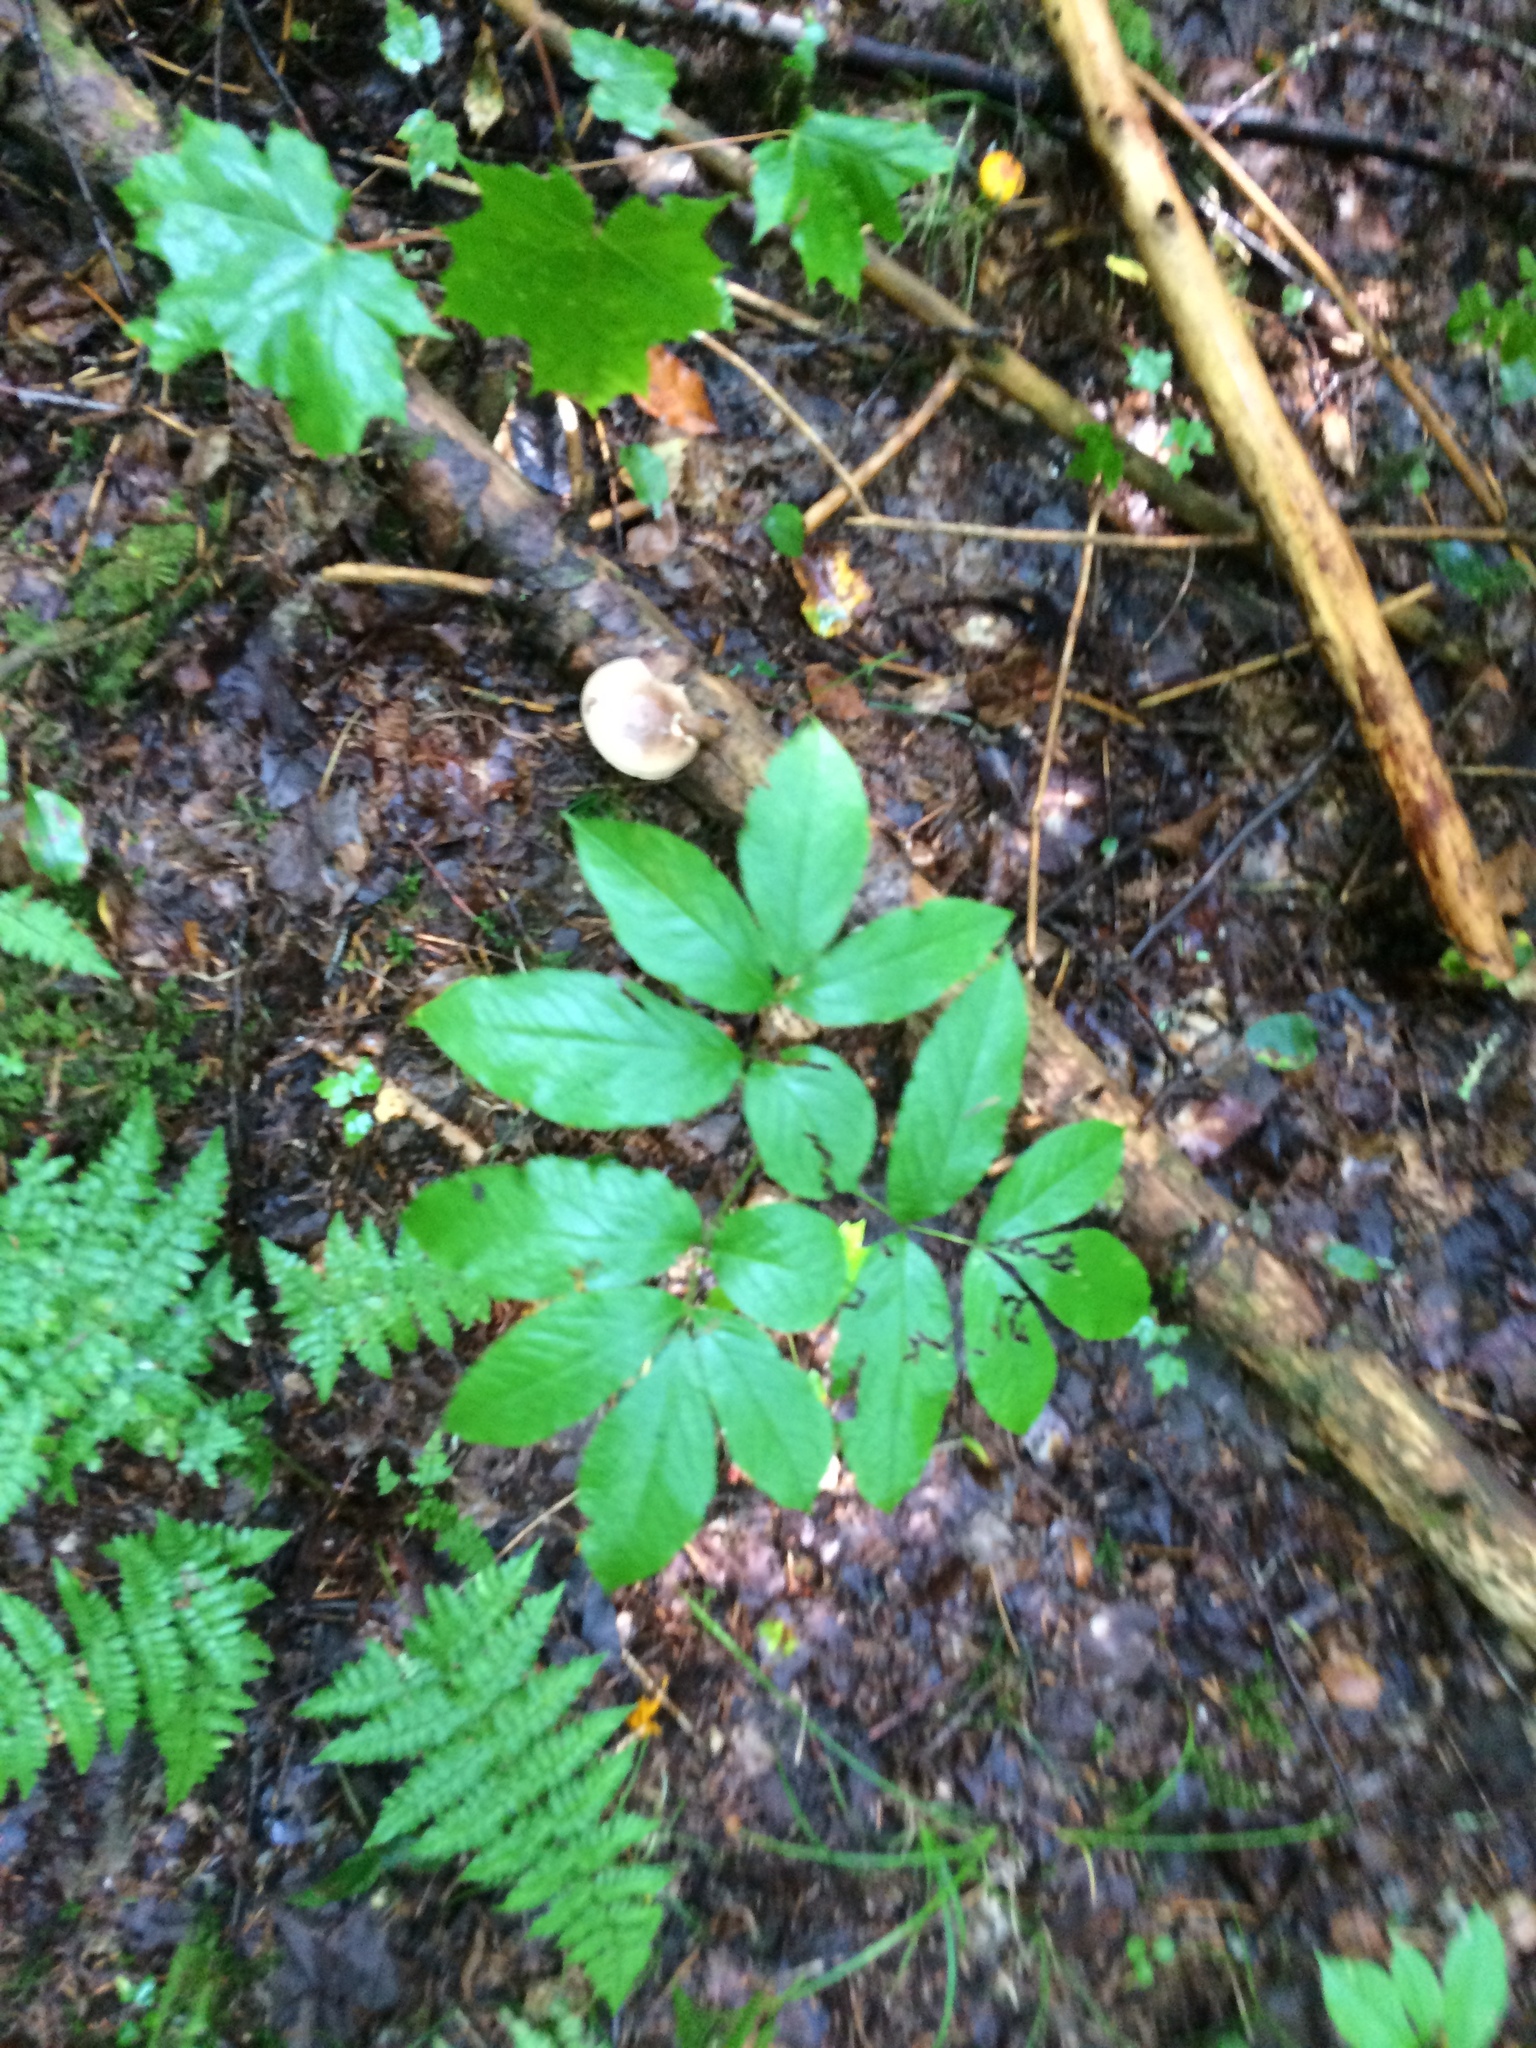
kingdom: Plantae
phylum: Tracheophyta
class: Magnoliopsida
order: Apiales
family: Araliaceae
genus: Aralia
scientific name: Aralia nudicaulis
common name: Wild sarsaparilla
